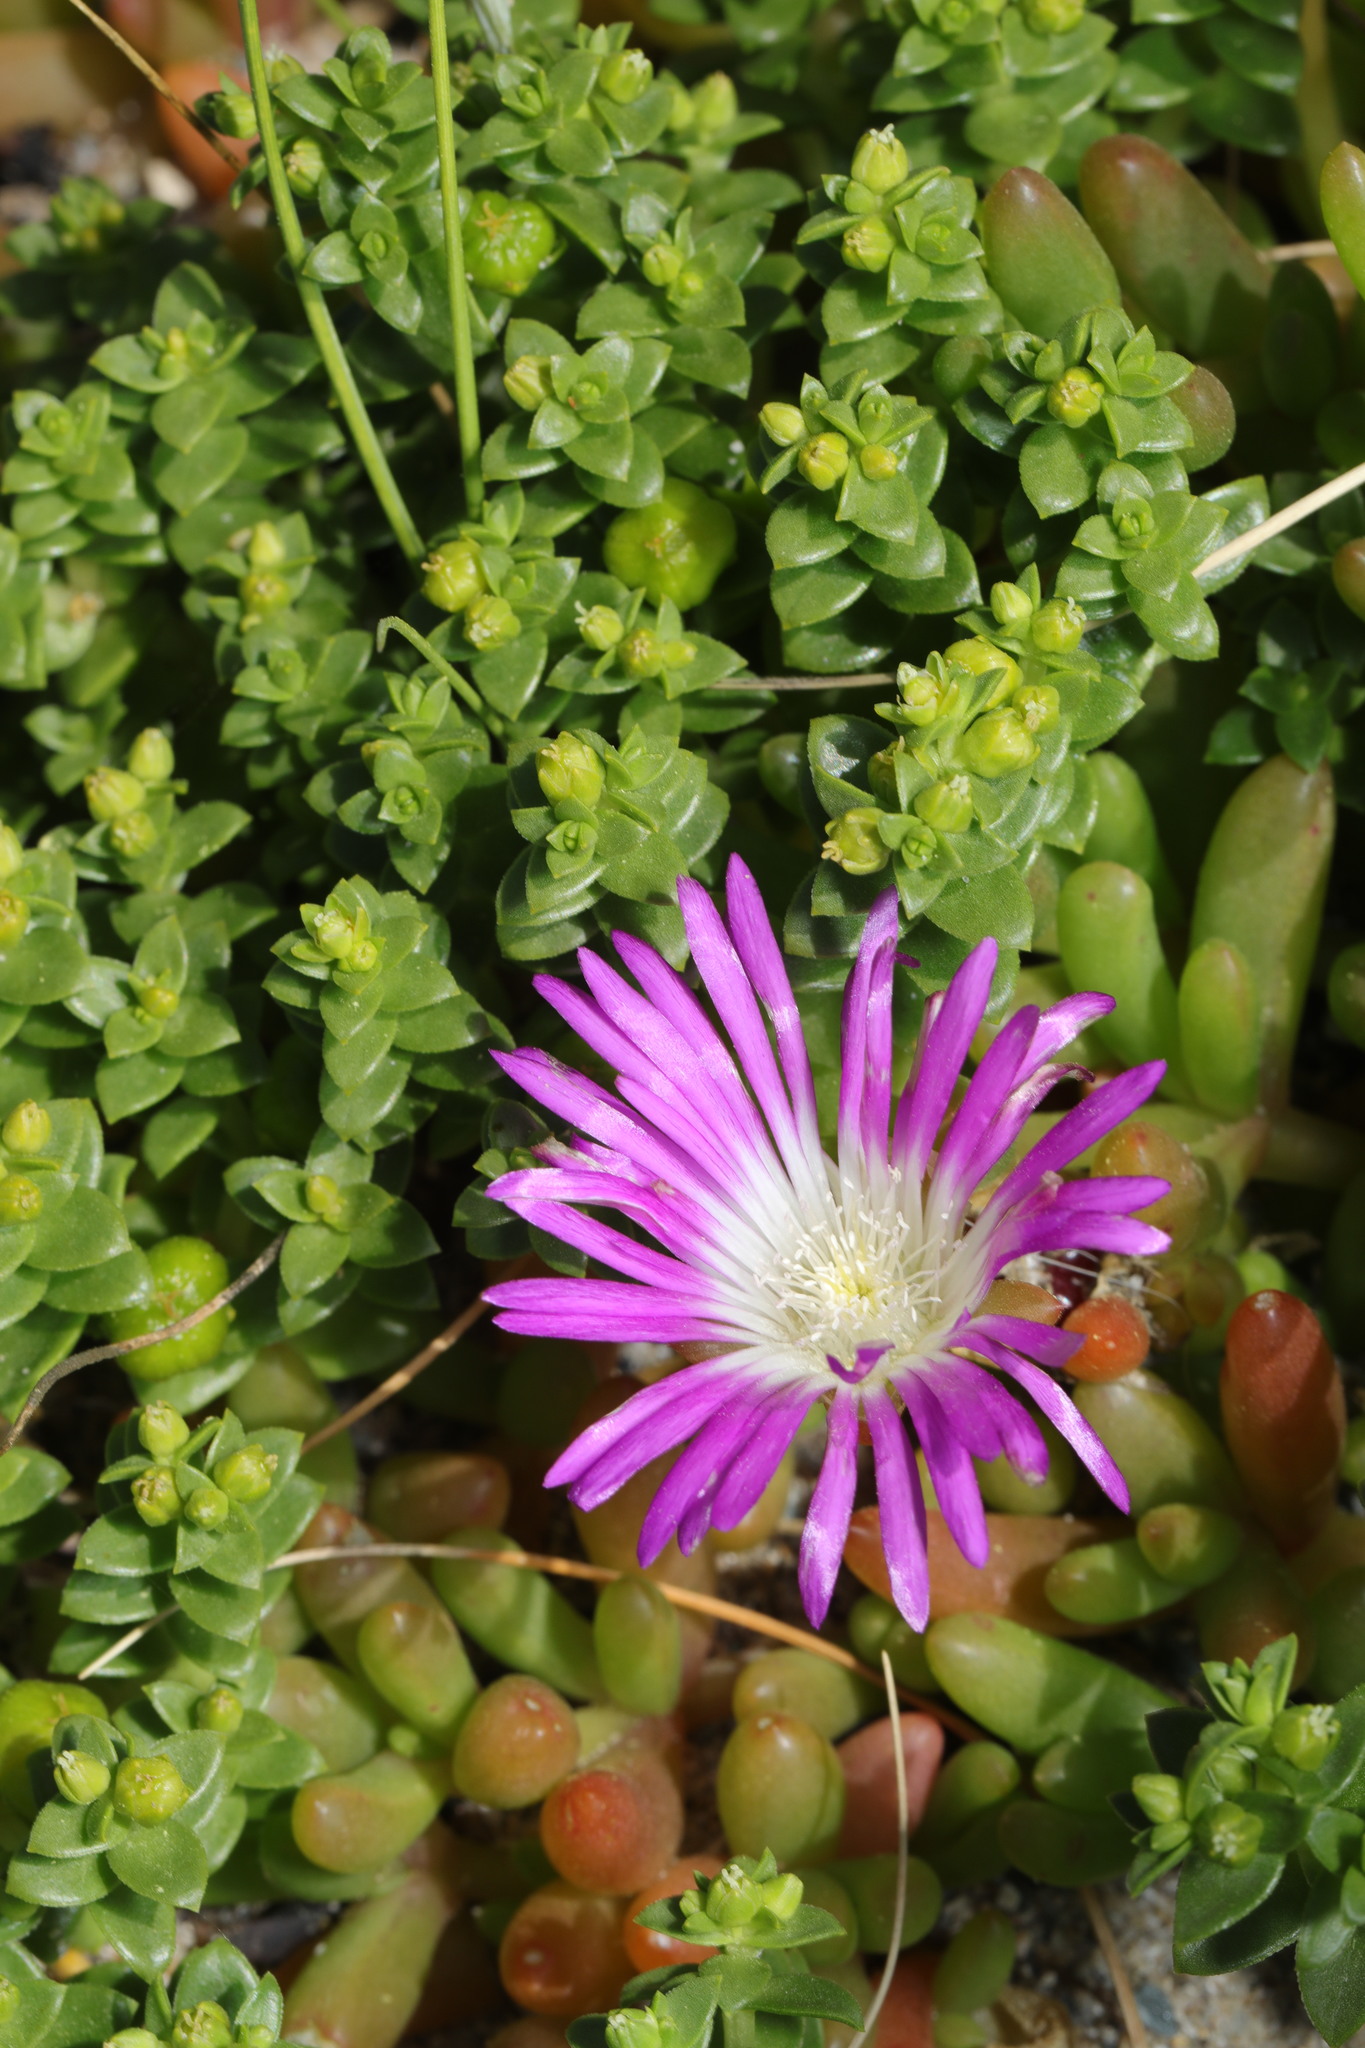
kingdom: Plantae
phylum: Tracheophyta
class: Magnoliopsida
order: Caryophyllales
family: Aizoaceae
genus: Disphyma
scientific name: Disphyma crassifolium
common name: Purple dewplant
